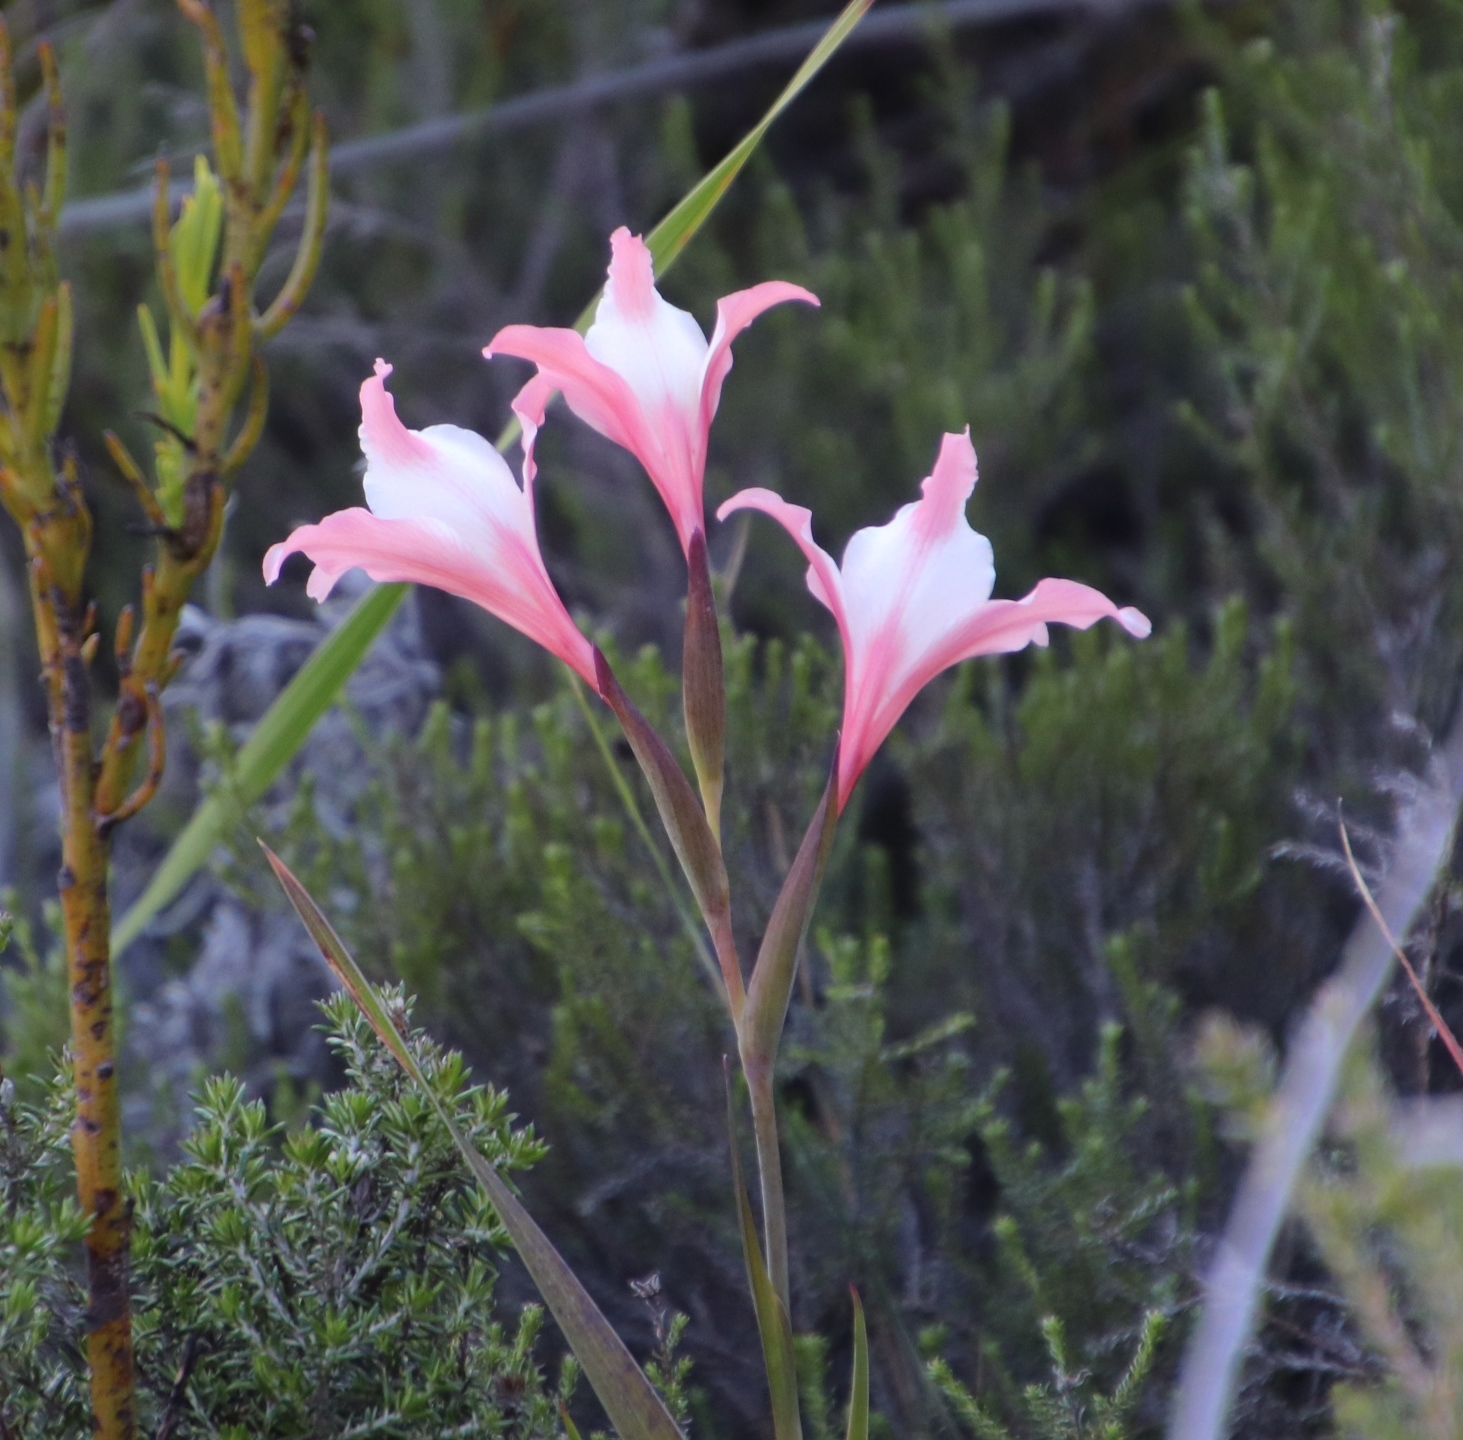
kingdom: Plantae
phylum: Tracheophyta
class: Liliopsida
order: Asparagales
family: Iridaceae
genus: Gladiolus
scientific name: Gladiolus carneus
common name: Painted-lady
